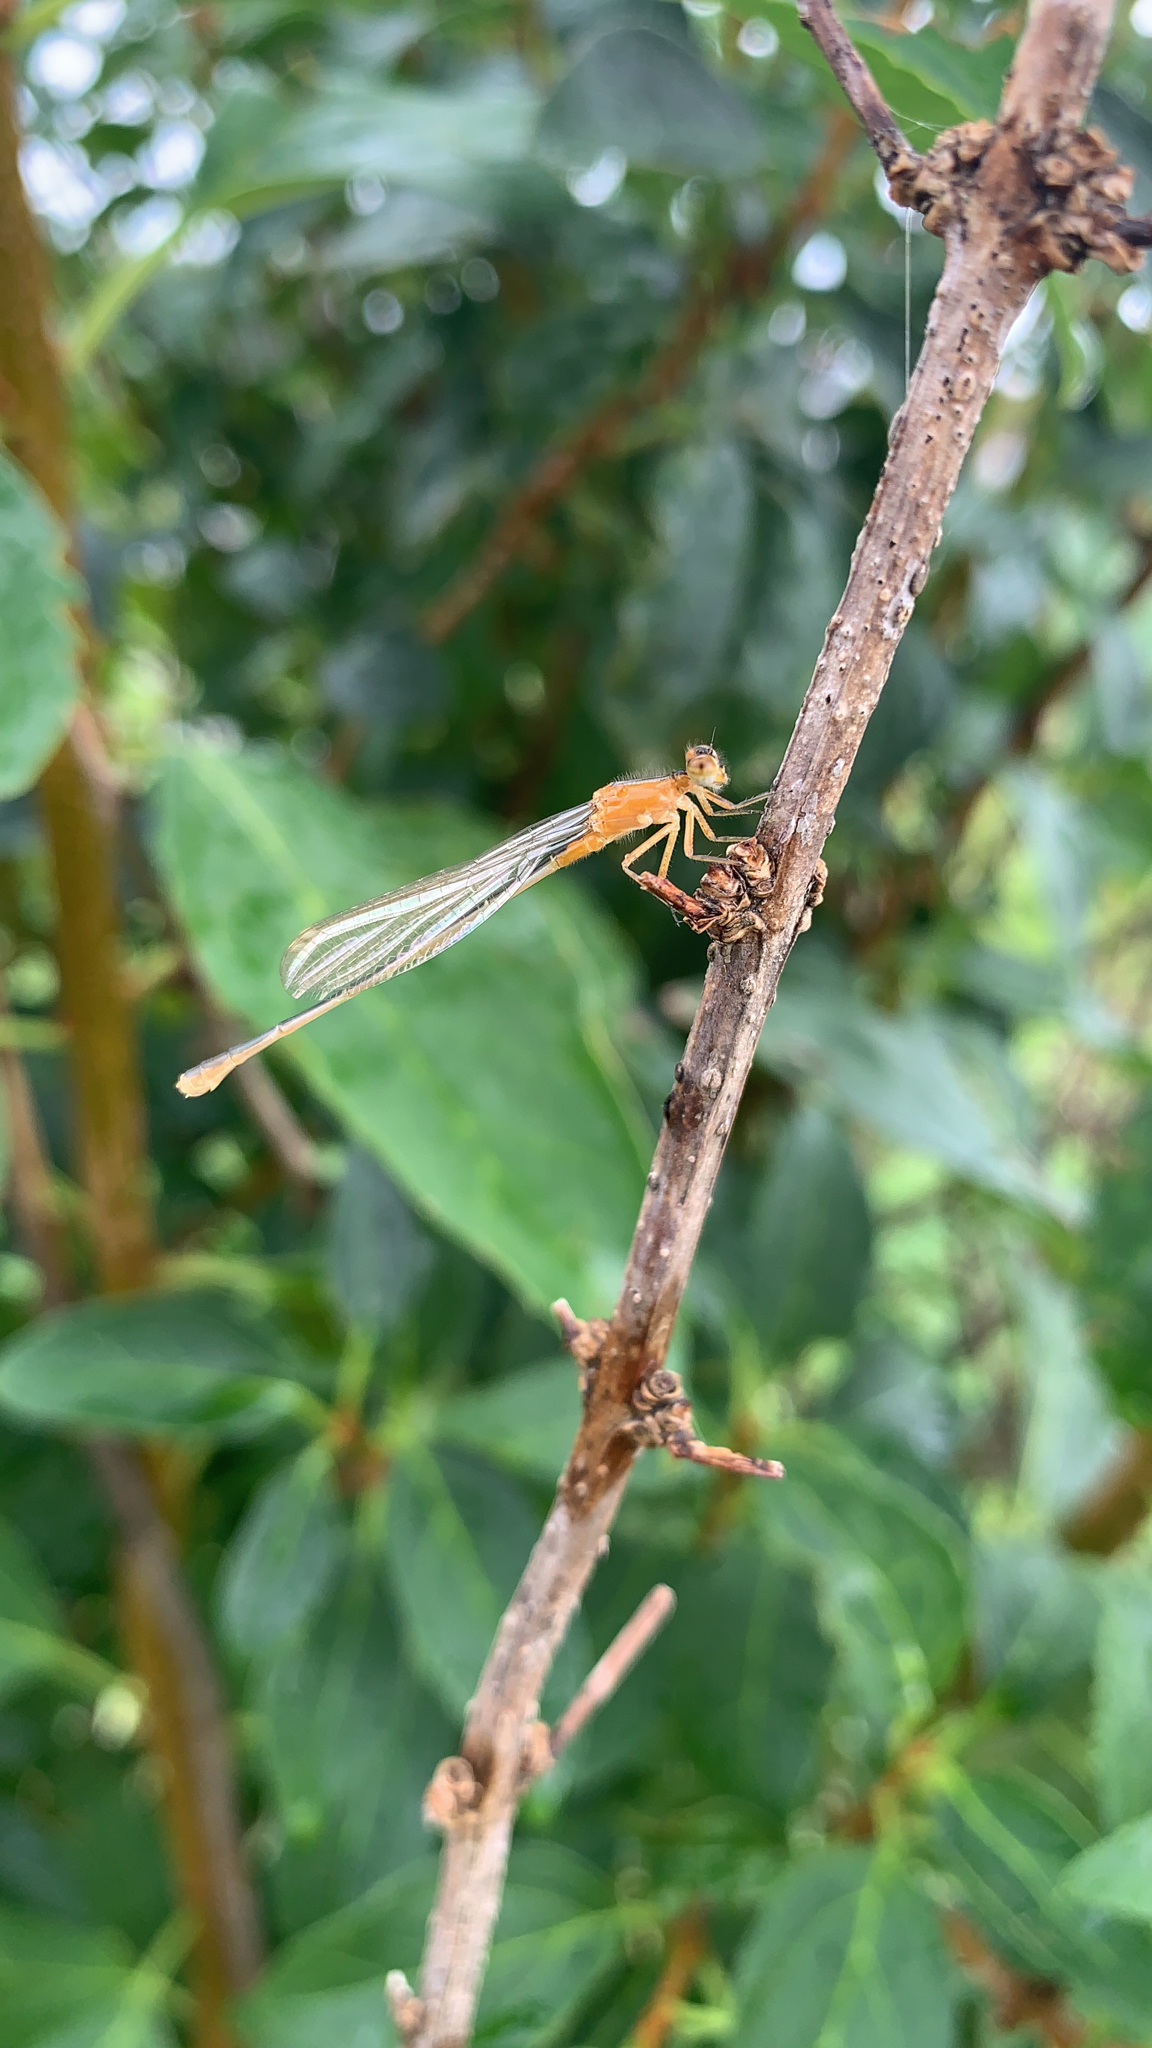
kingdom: Animalia
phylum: Arthropoda
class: Insecta
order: Odonata
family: Coenagrionidae
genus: Ischnura
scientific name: Ischnura ramburii
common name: Rambur's forktail
